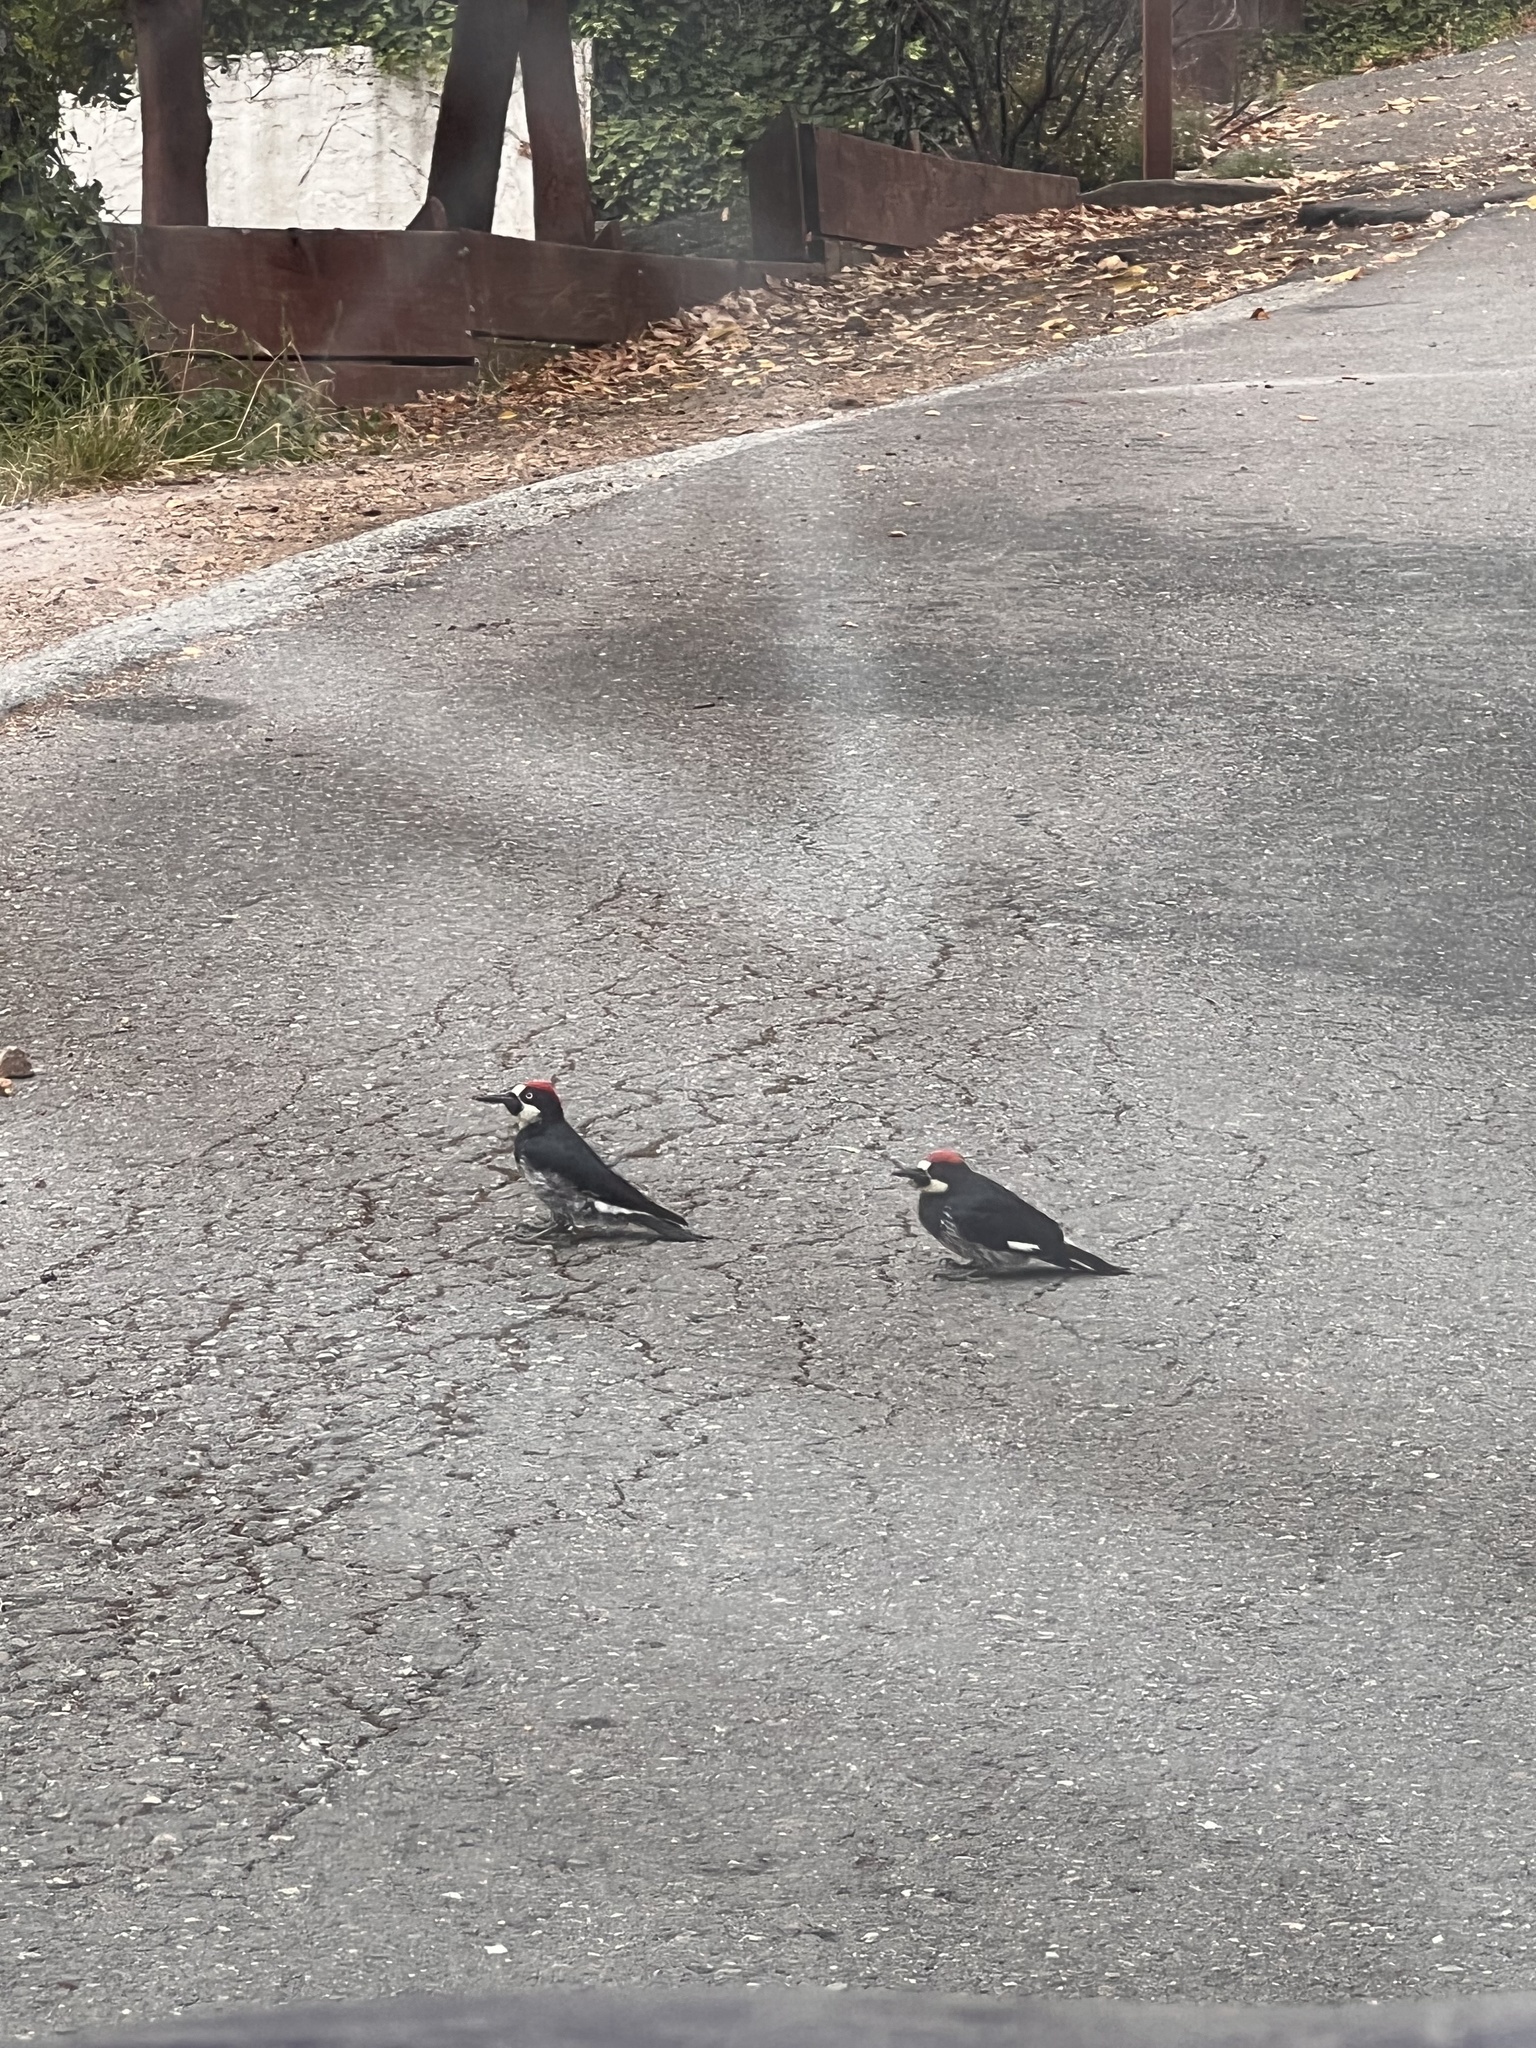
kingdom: Animalia
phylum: Chordata
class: Aves
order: Piciformes
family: Picidae
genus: Melanerpes
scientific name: Melanerpes formicivorus
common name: Acorn woodpecker
